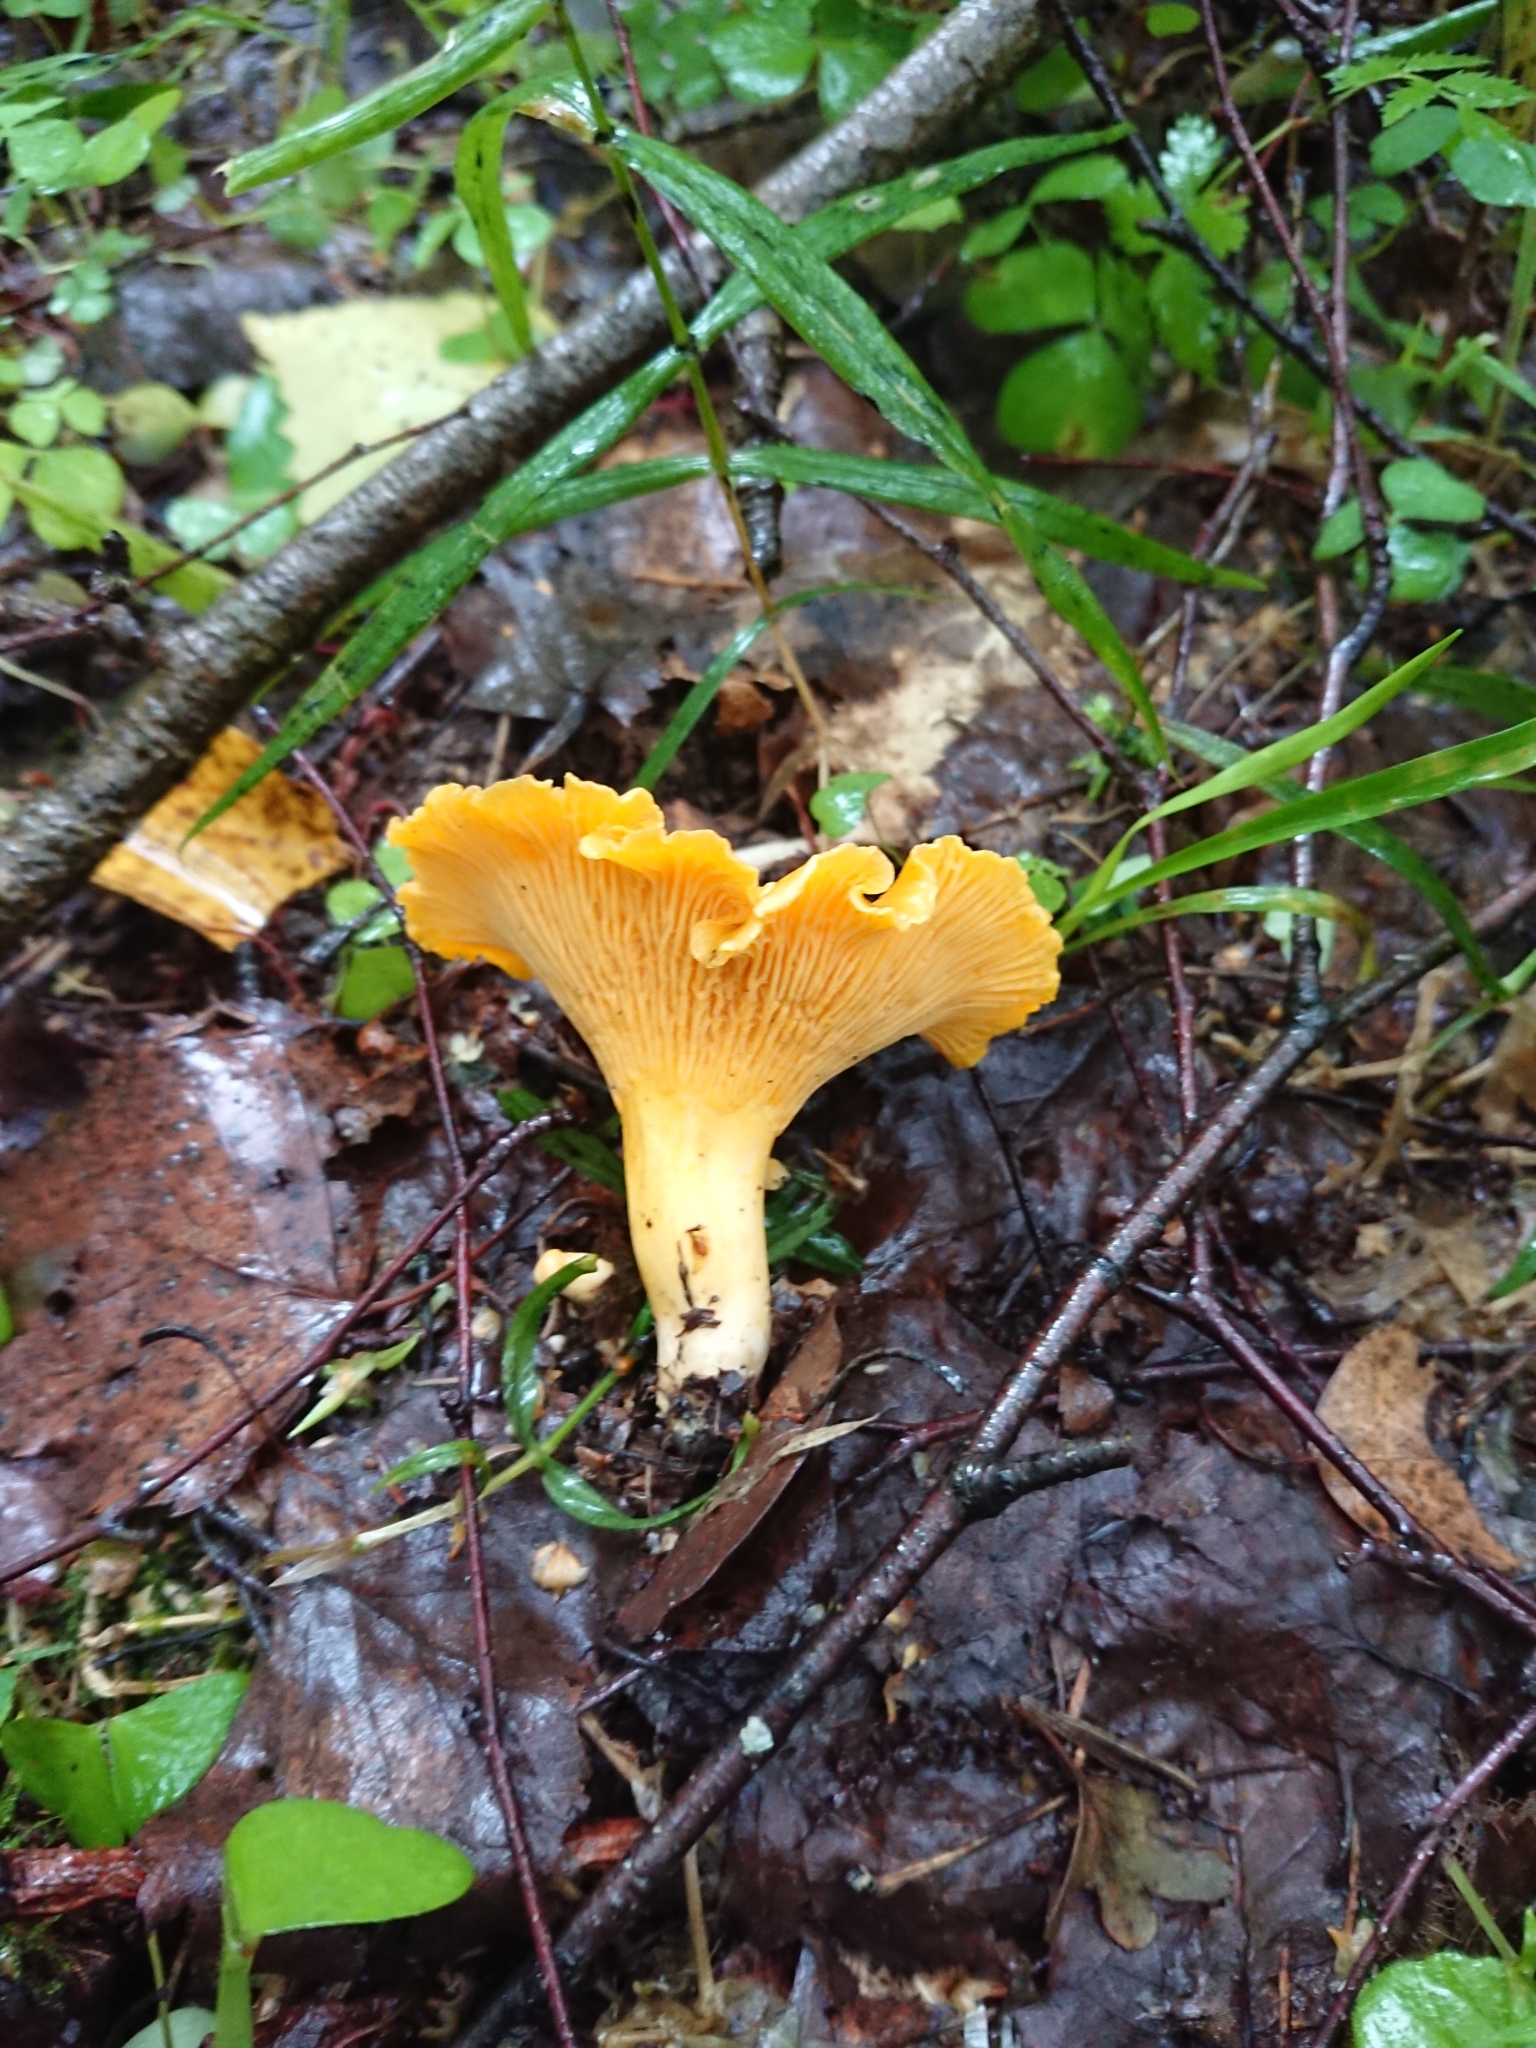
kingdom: Fungi
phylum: Basidiomycota
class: Agaricomycetes
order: Cantharellales
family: Hydnaceae
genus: Cantharellus
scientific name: Cantharellus cibarius
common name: Chanterelle
